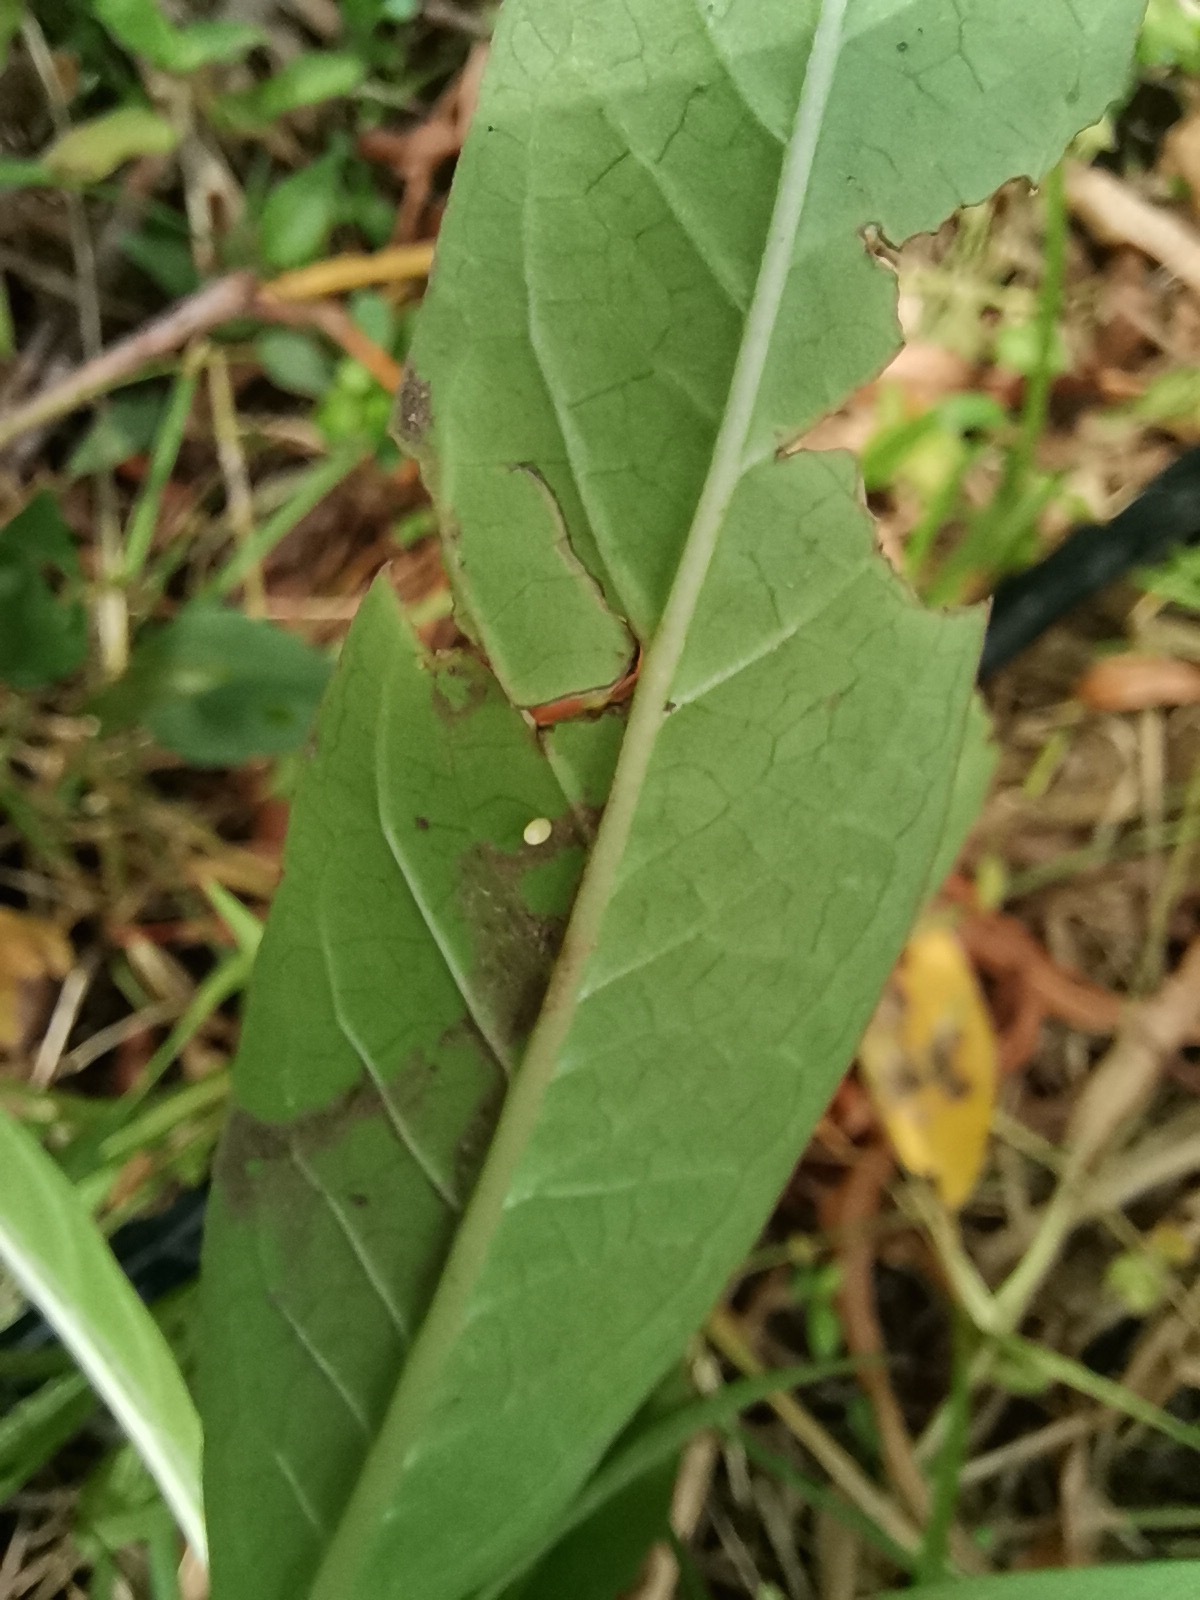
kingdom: Animalia
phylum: Arthropoda
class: Insecta
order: Lepidoptera
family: Nymphalidae
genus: Danaus
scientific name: Danaus plexippus
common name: Monarch
